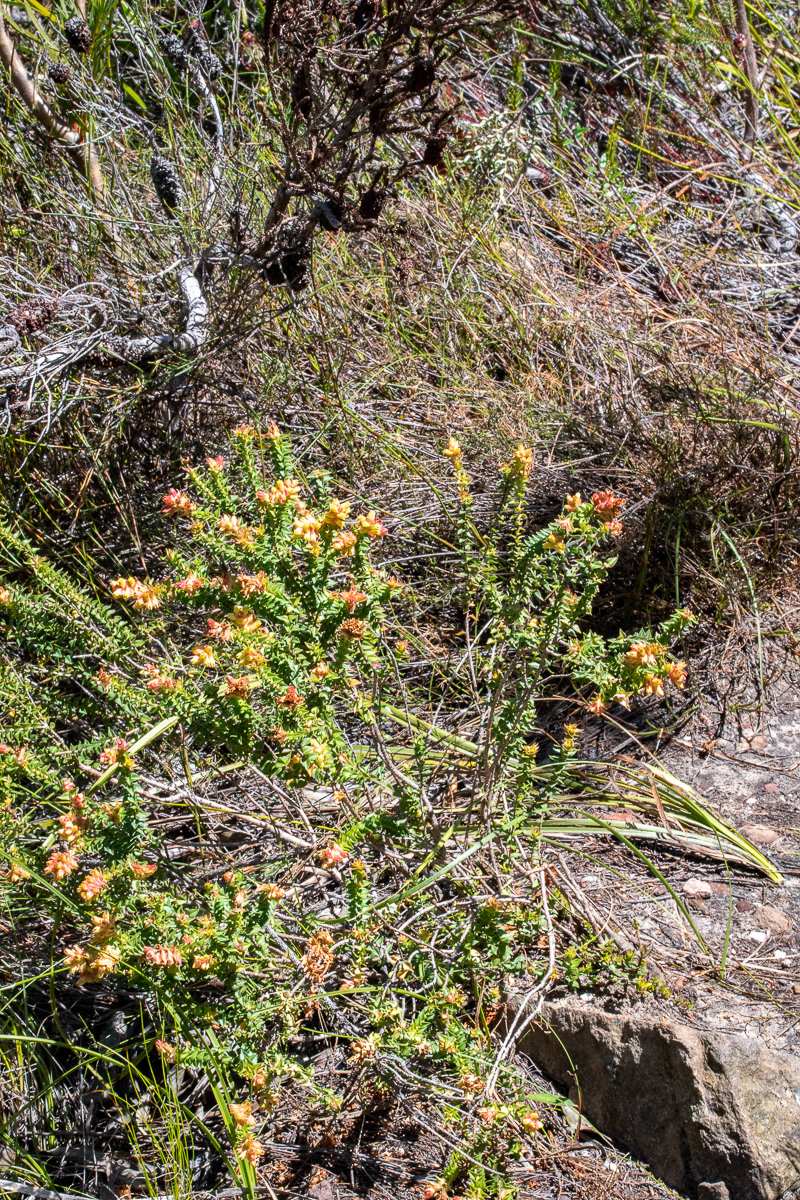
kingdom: Plantae
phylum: Tracheophyta
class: Magnoliopsida
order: Myrtales
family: Penaeaceae
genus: Penaea
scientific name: Penaea mucronata
